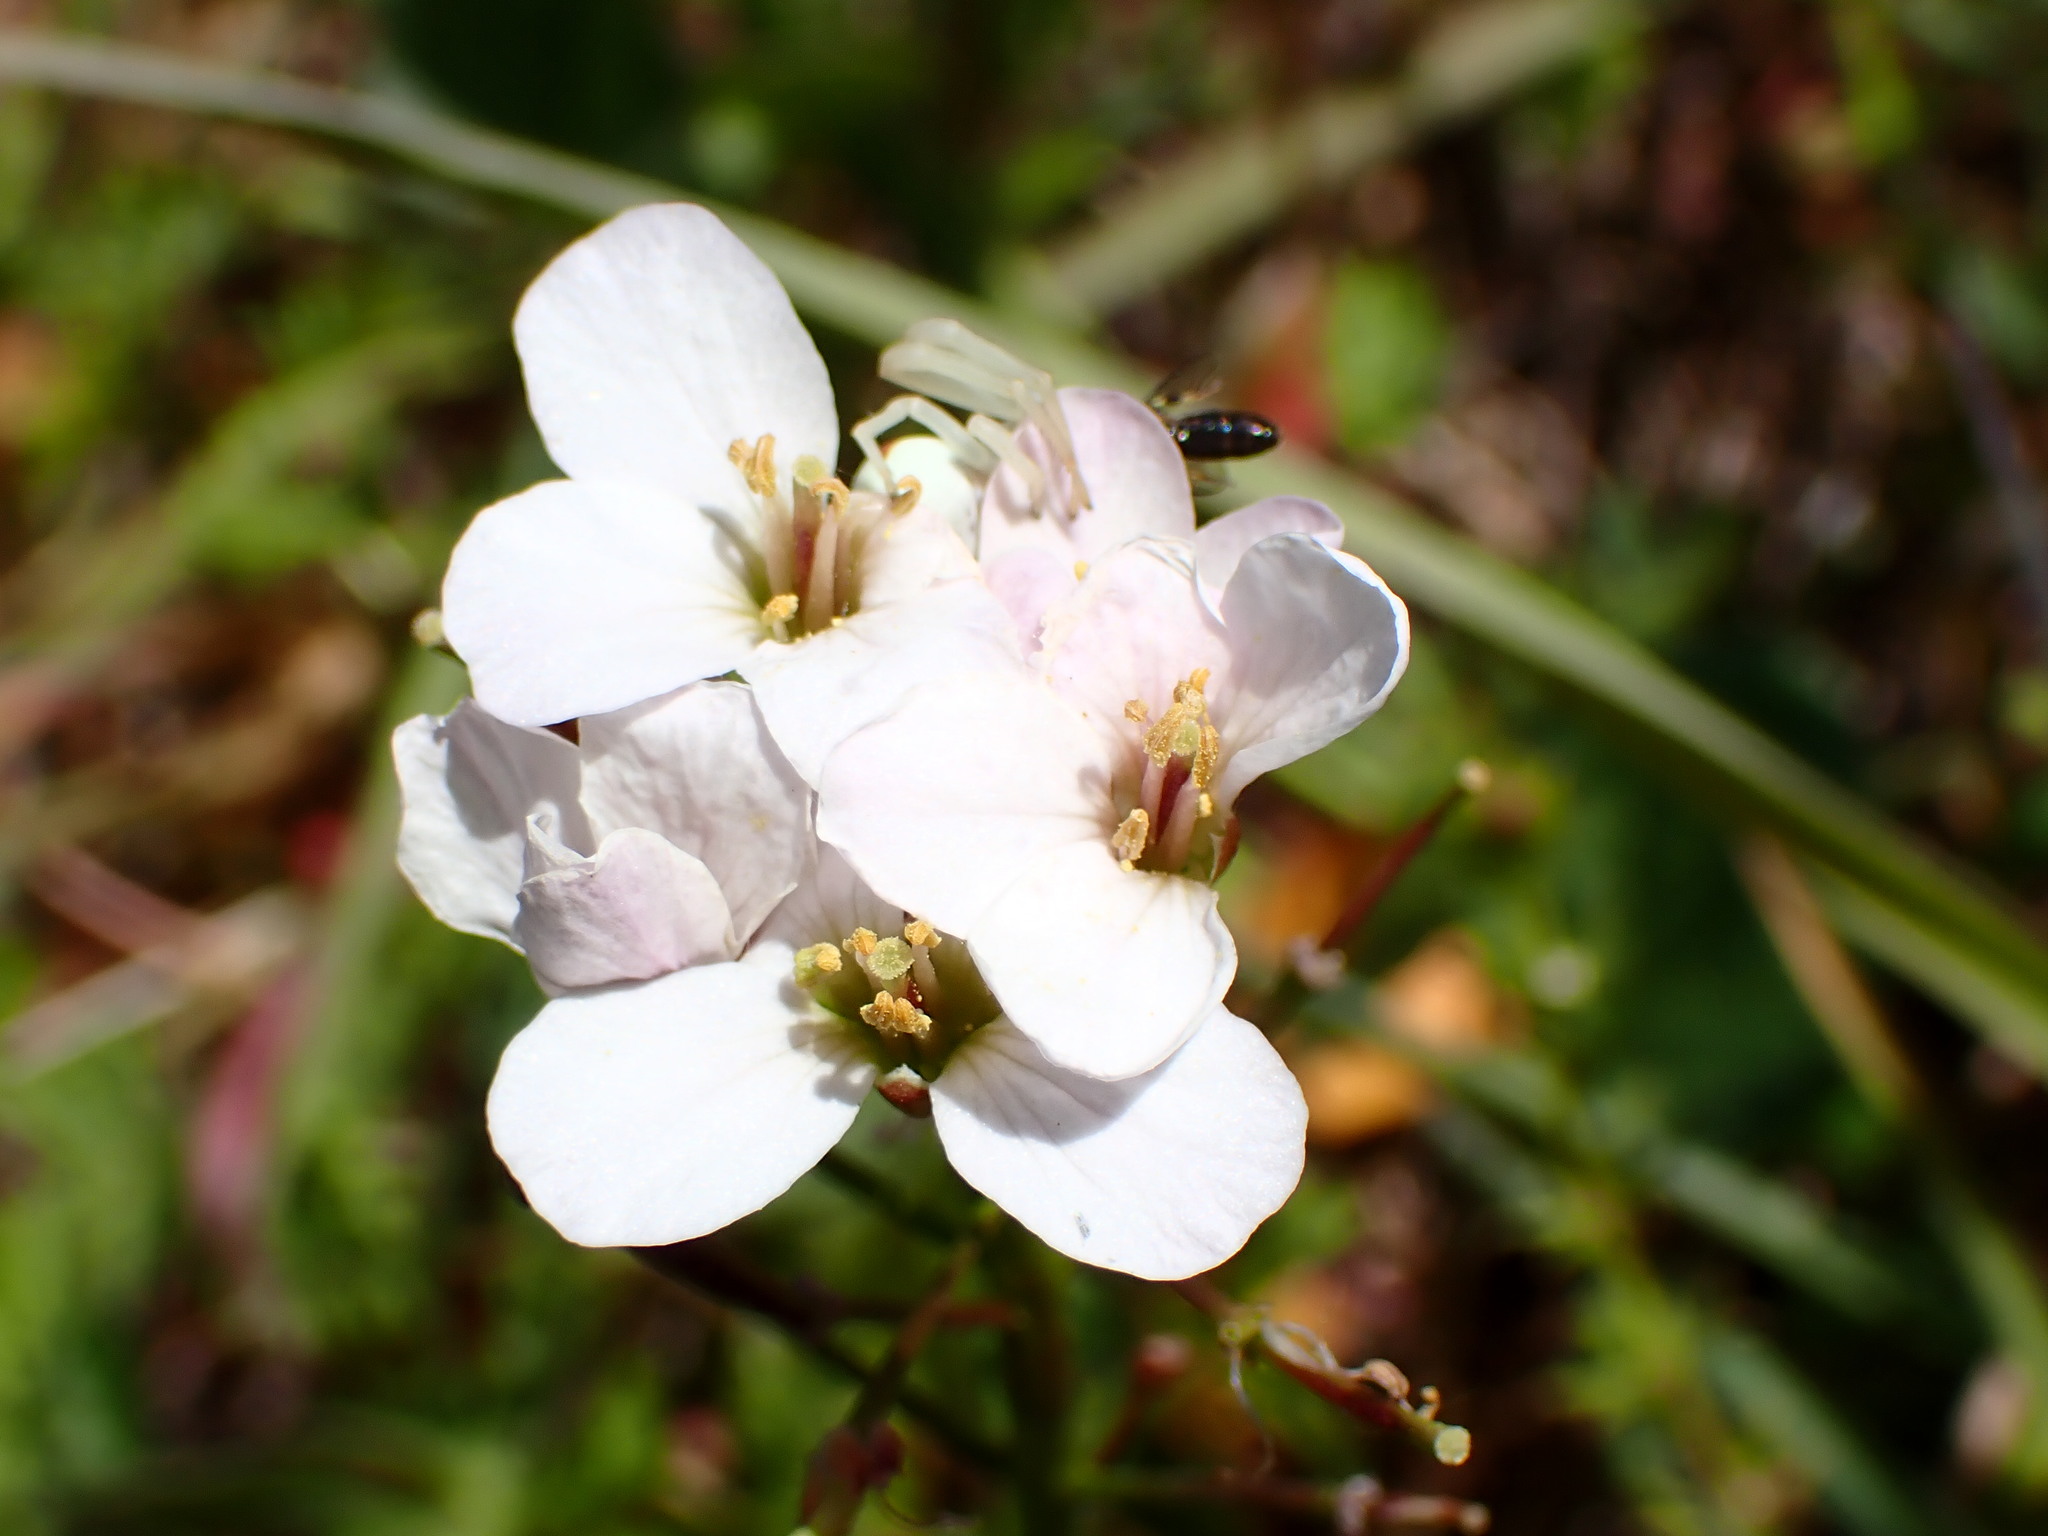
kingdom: Plantae
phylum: Tracheophyta
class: Magnoliopsida
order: Brassicales
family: Brassicaceae
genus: Cardamine
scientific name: Cardamine californica
